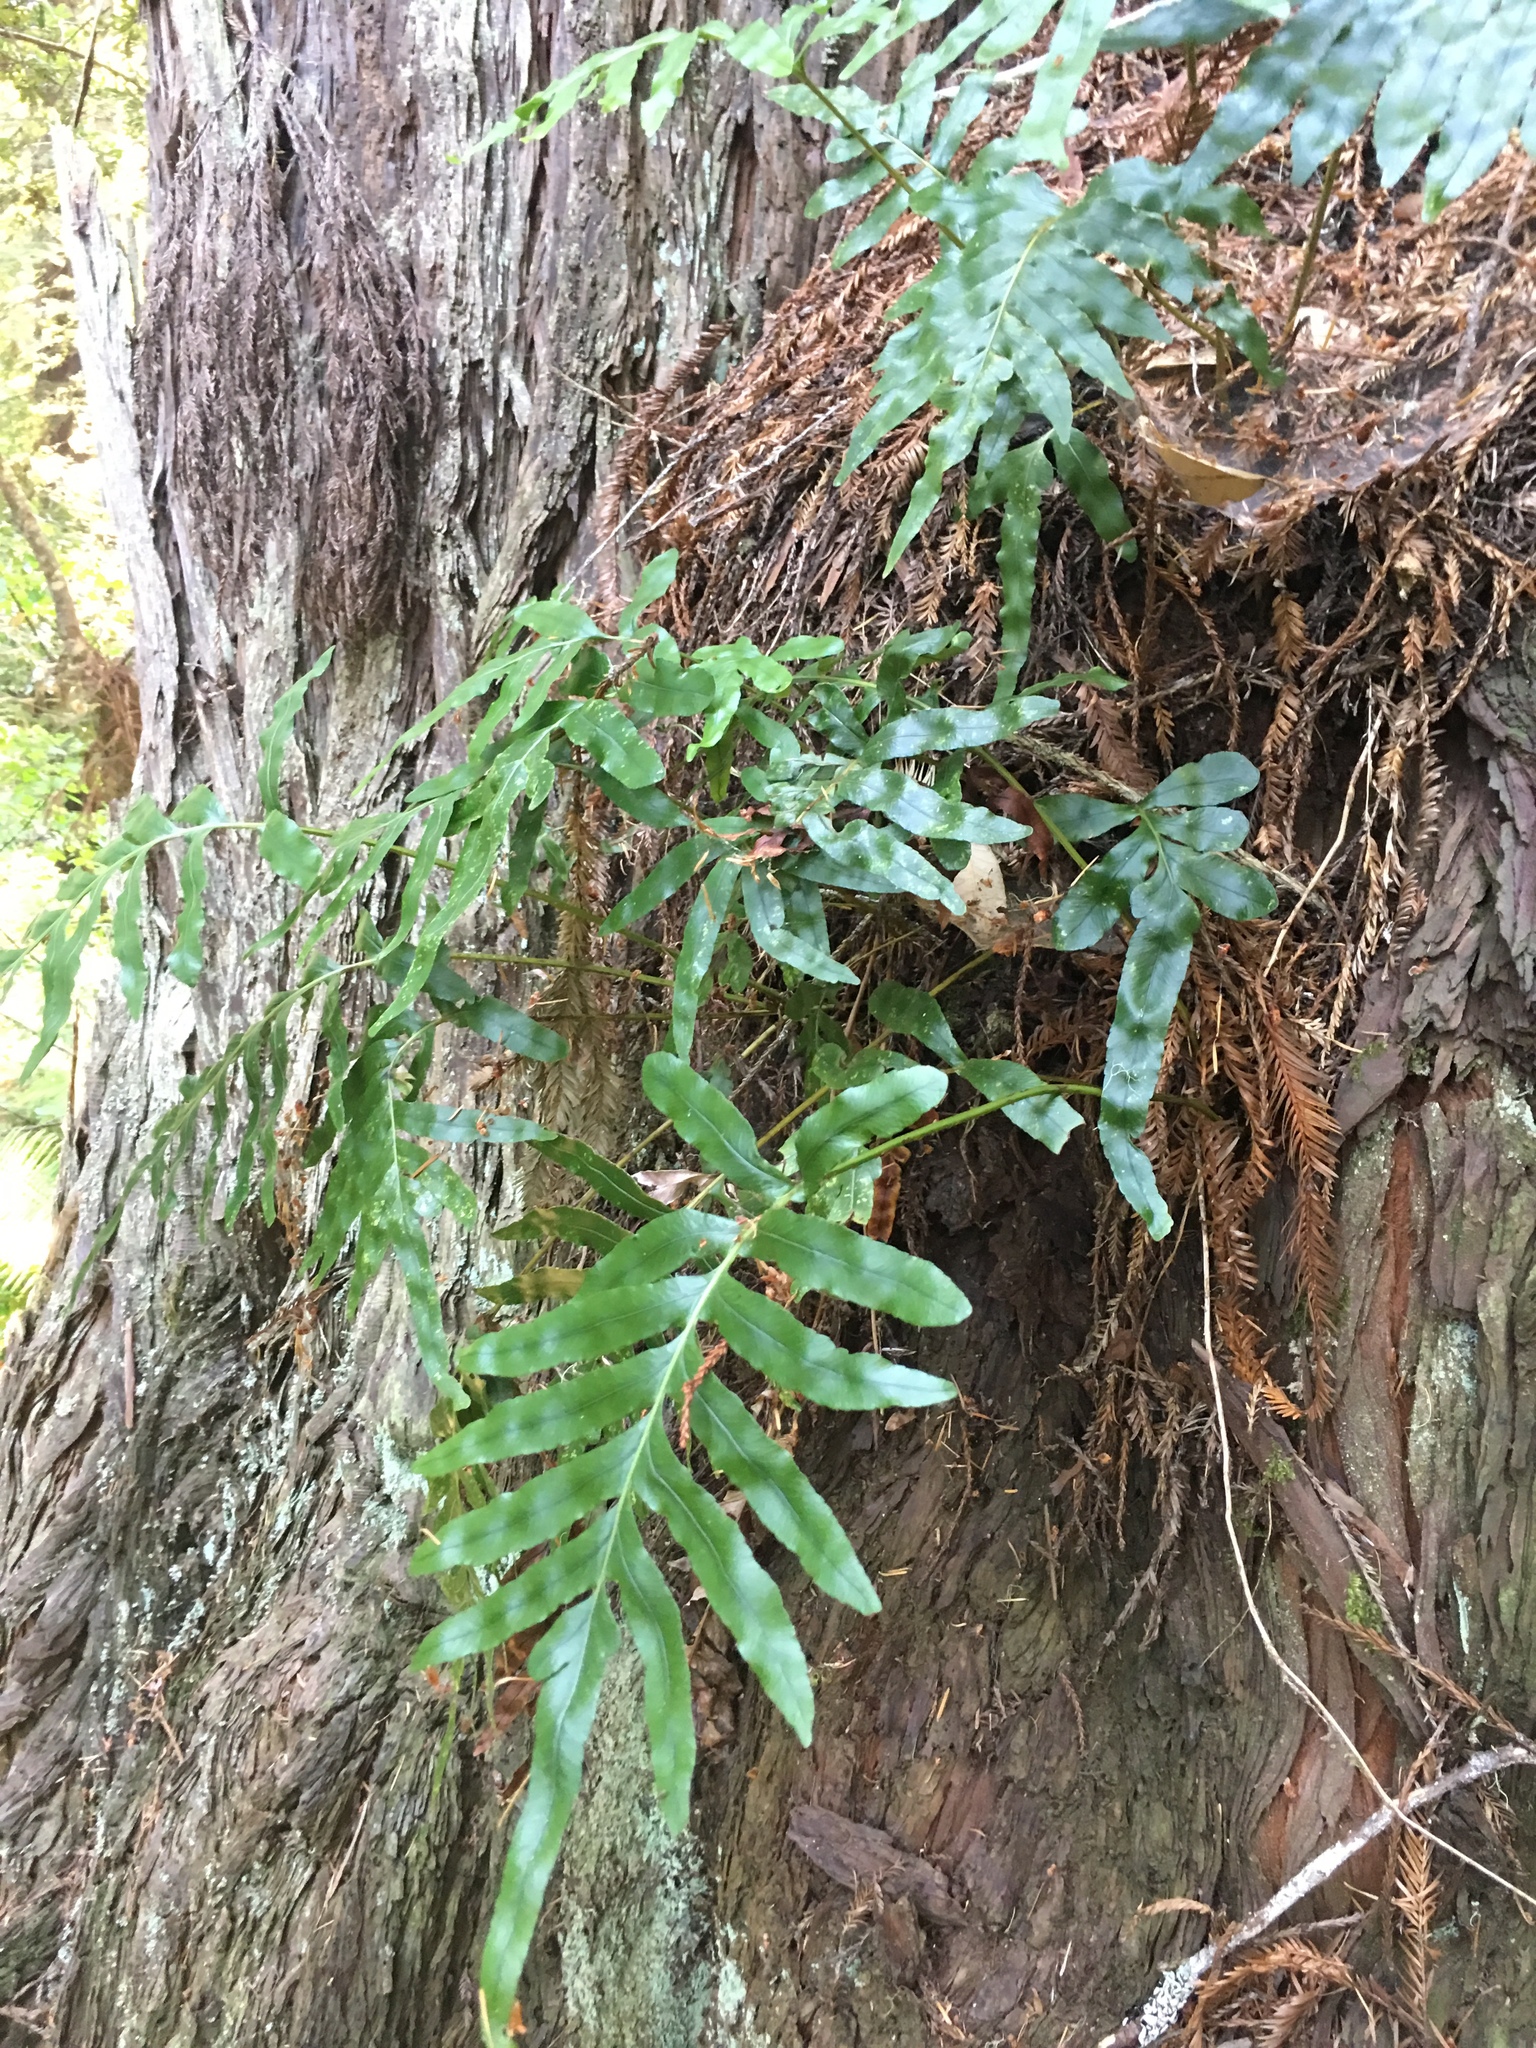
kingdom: Plantae
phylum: Tracheophyta
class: Polypodiopsida
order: Polypodiales
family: Polypodiaceae
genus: Polypodium
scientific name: Polypodium scouleri
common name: Scouler's polypody
